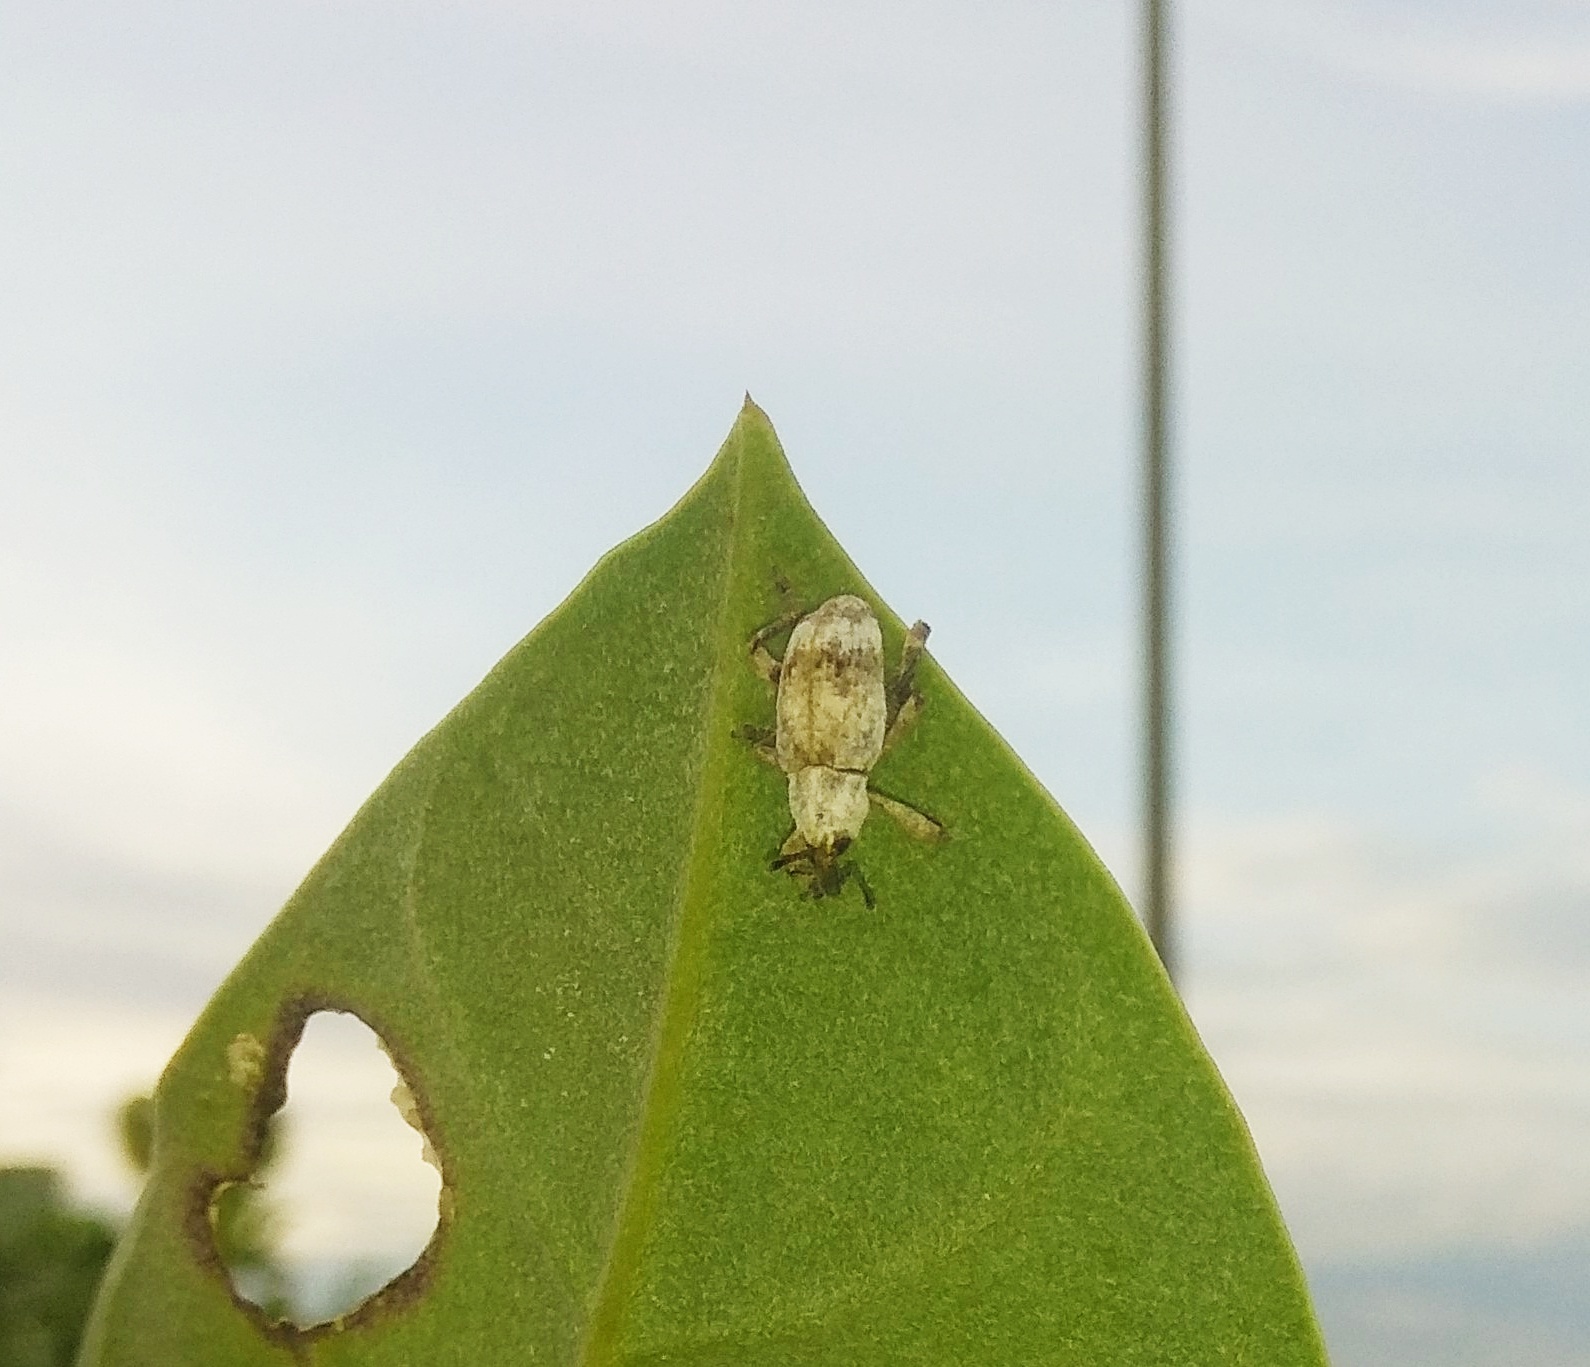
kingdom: Animalia
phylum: Arthropoda
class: Insecta
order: Coleoptera
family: Curculionidae
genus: Paramecops
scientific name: Paramecops farinosa
